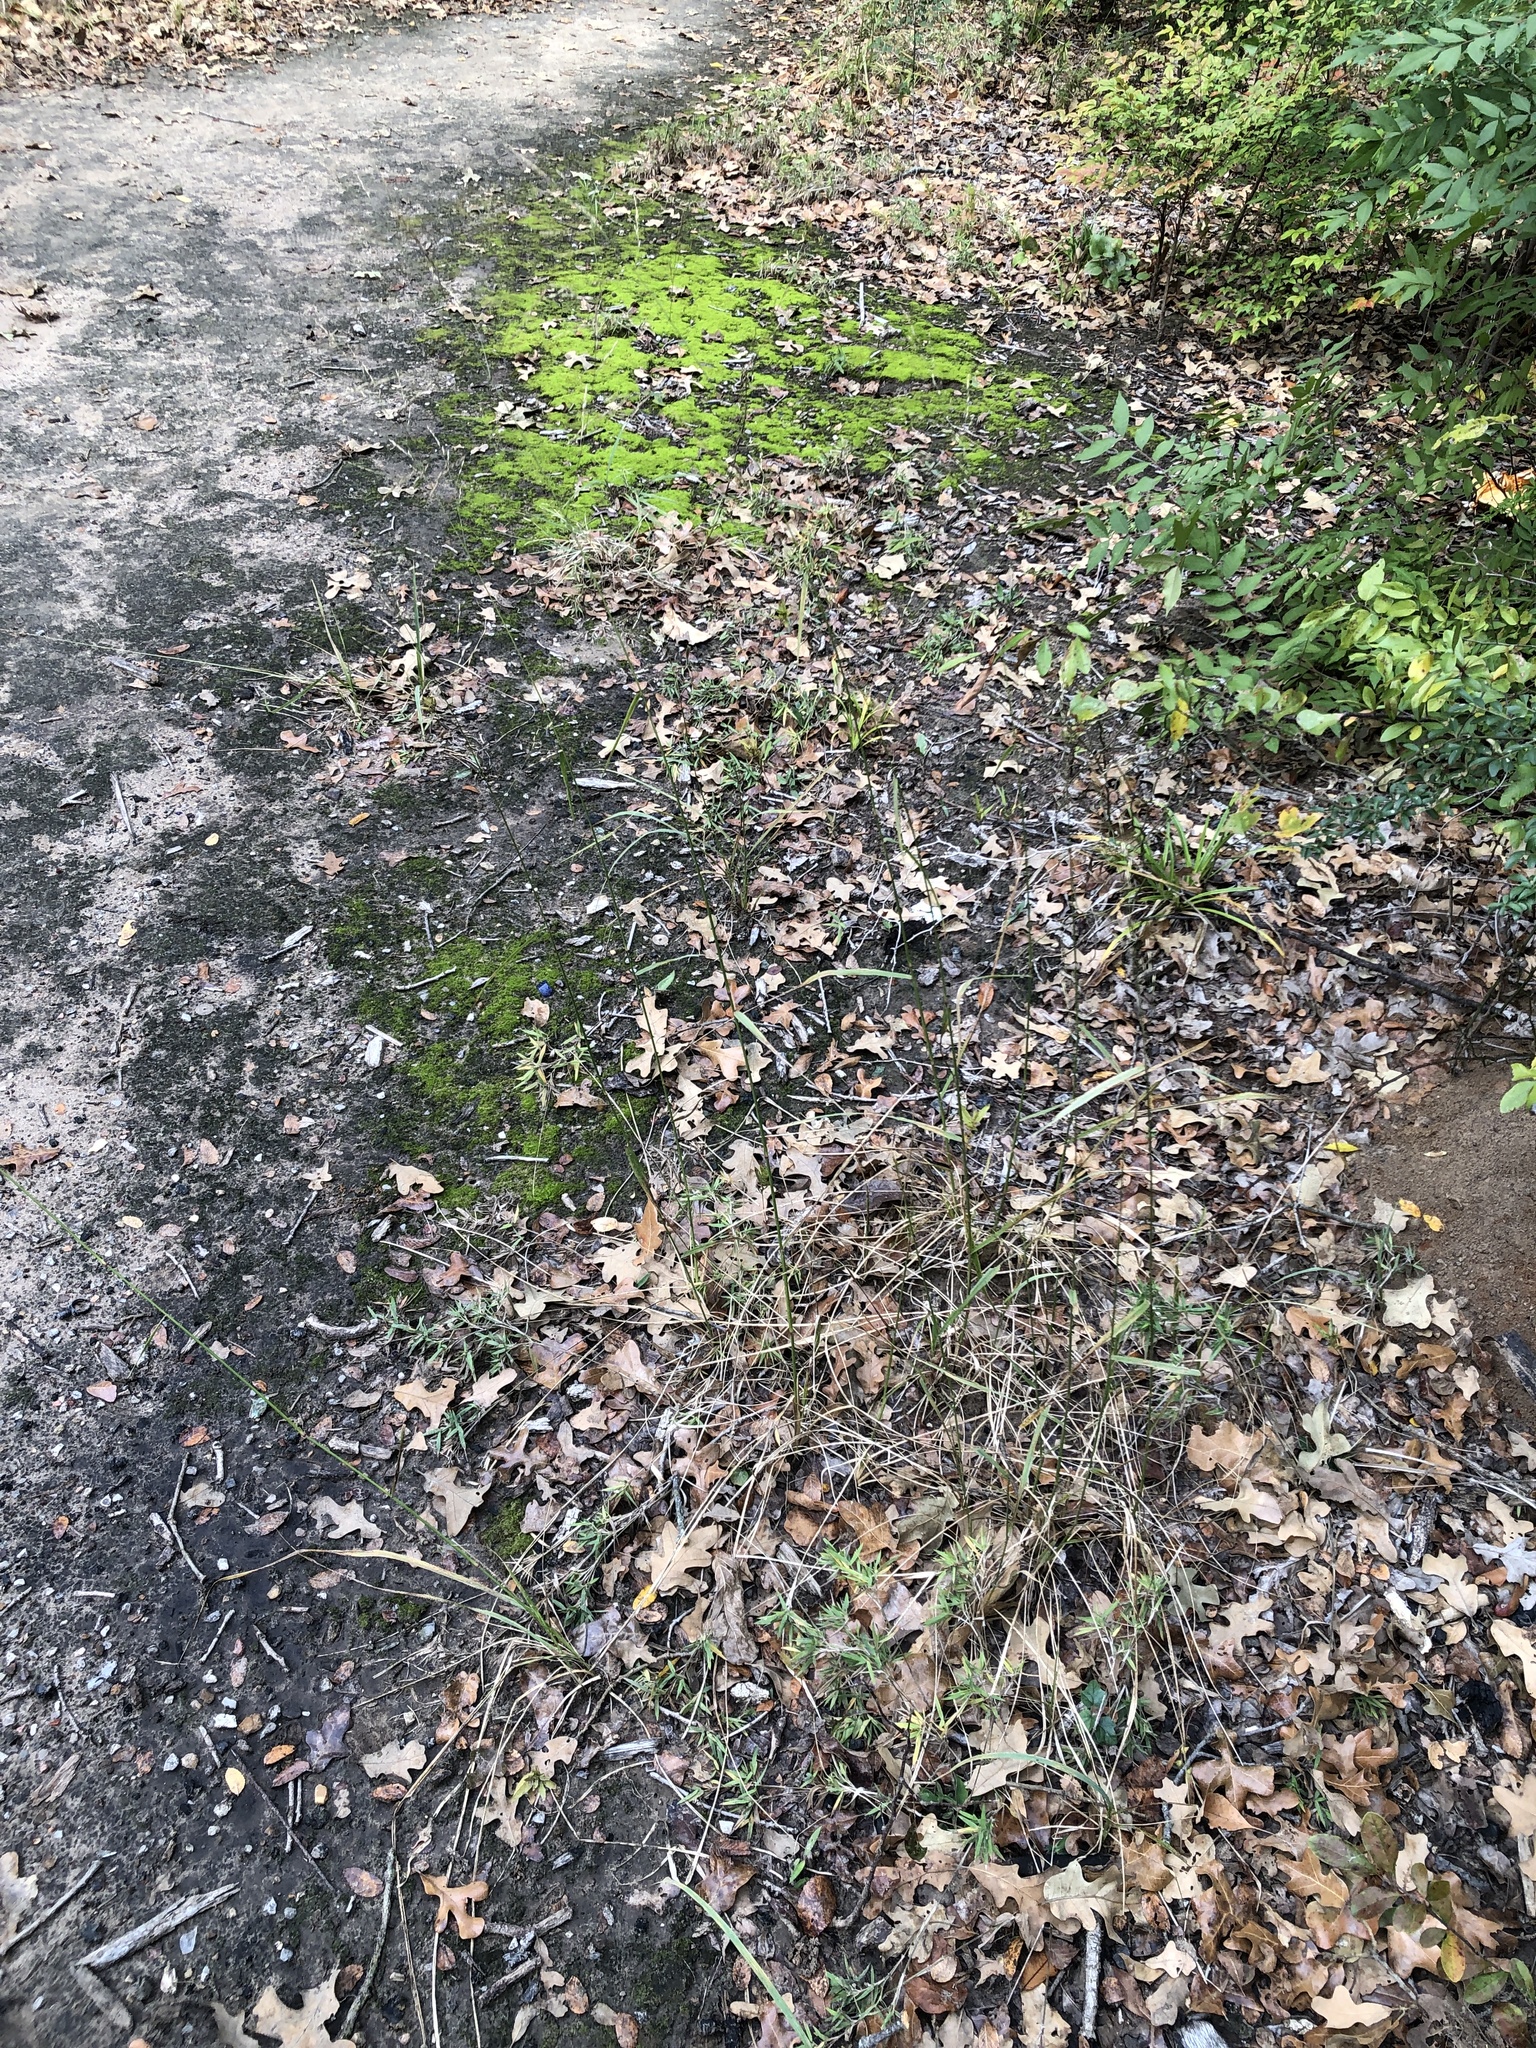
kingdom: Plantae
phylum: Tracheophyta
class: Liliopsida
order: Poales
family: Poaceae
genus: Tridens
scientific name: Tridens flavus
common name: Purpletop
